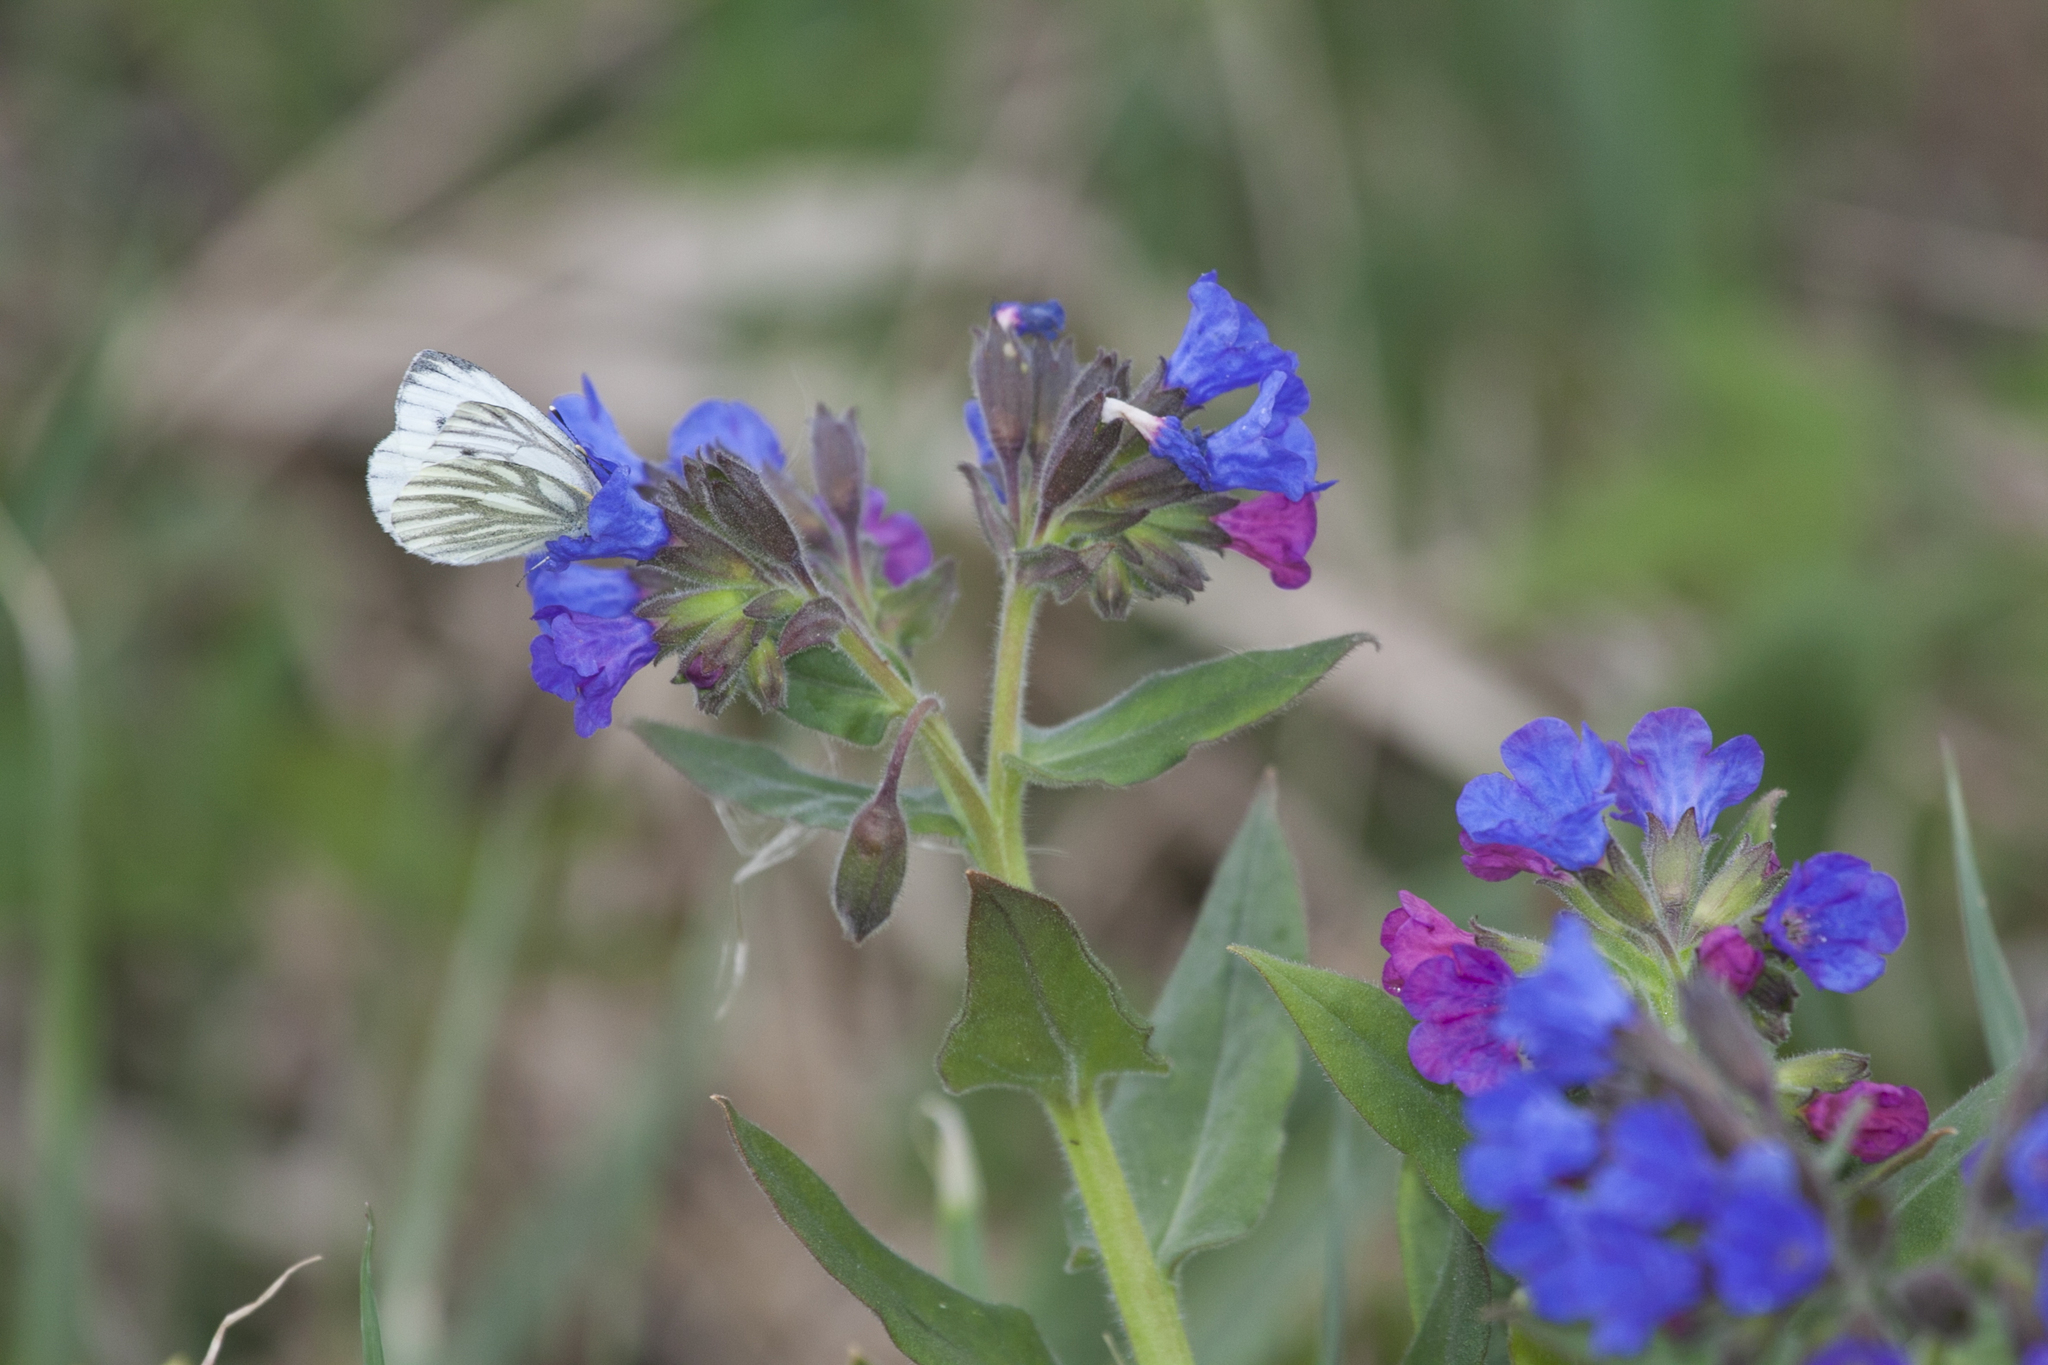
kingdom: Animalia
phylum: Arthropoda
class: Insecta
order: Lepidoptera
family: Pieridae
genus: Pieris
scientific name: Pieris napi
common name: Green-veined white
